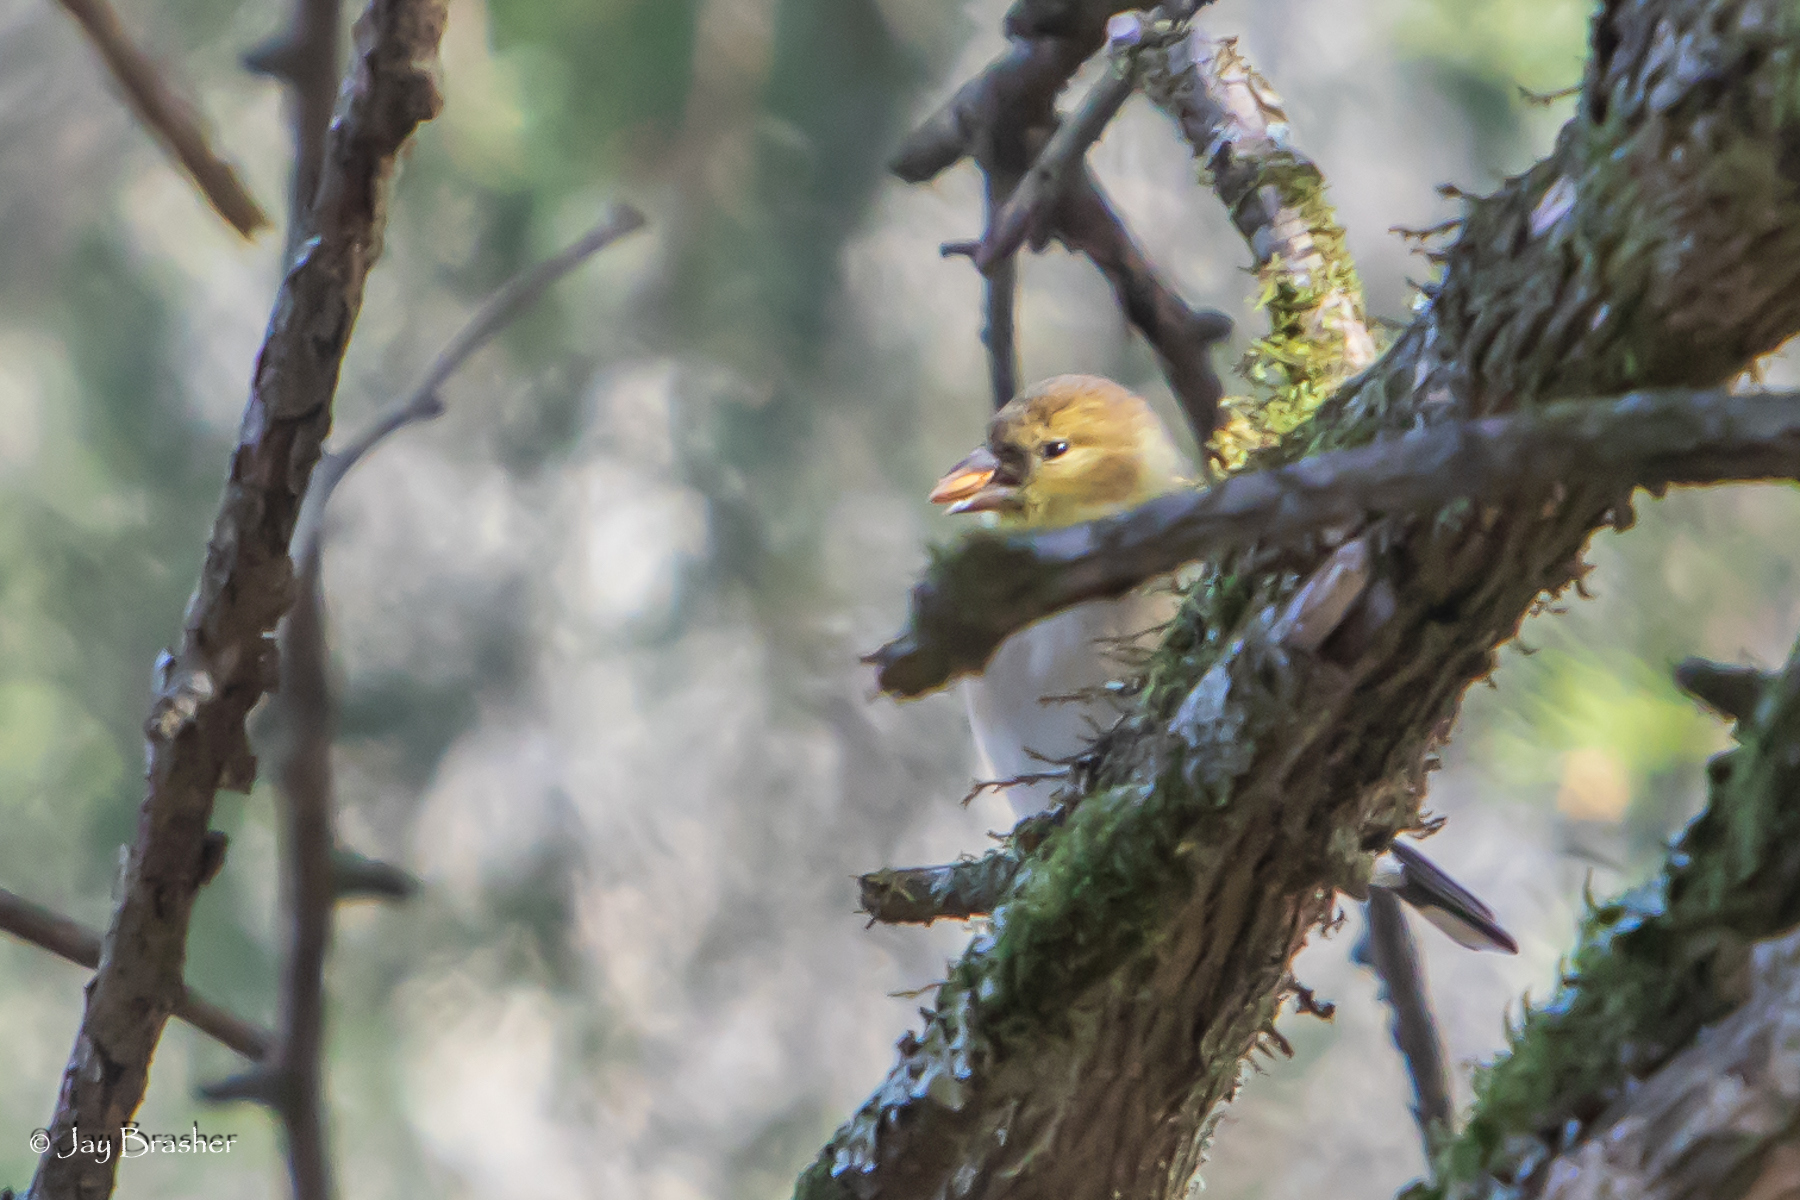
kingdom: Animalia
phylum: Chordata
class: Aves
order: Passeriformes
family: Fringillidae
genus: Spinus
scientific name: Spinus tristis
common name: American goldfinch
